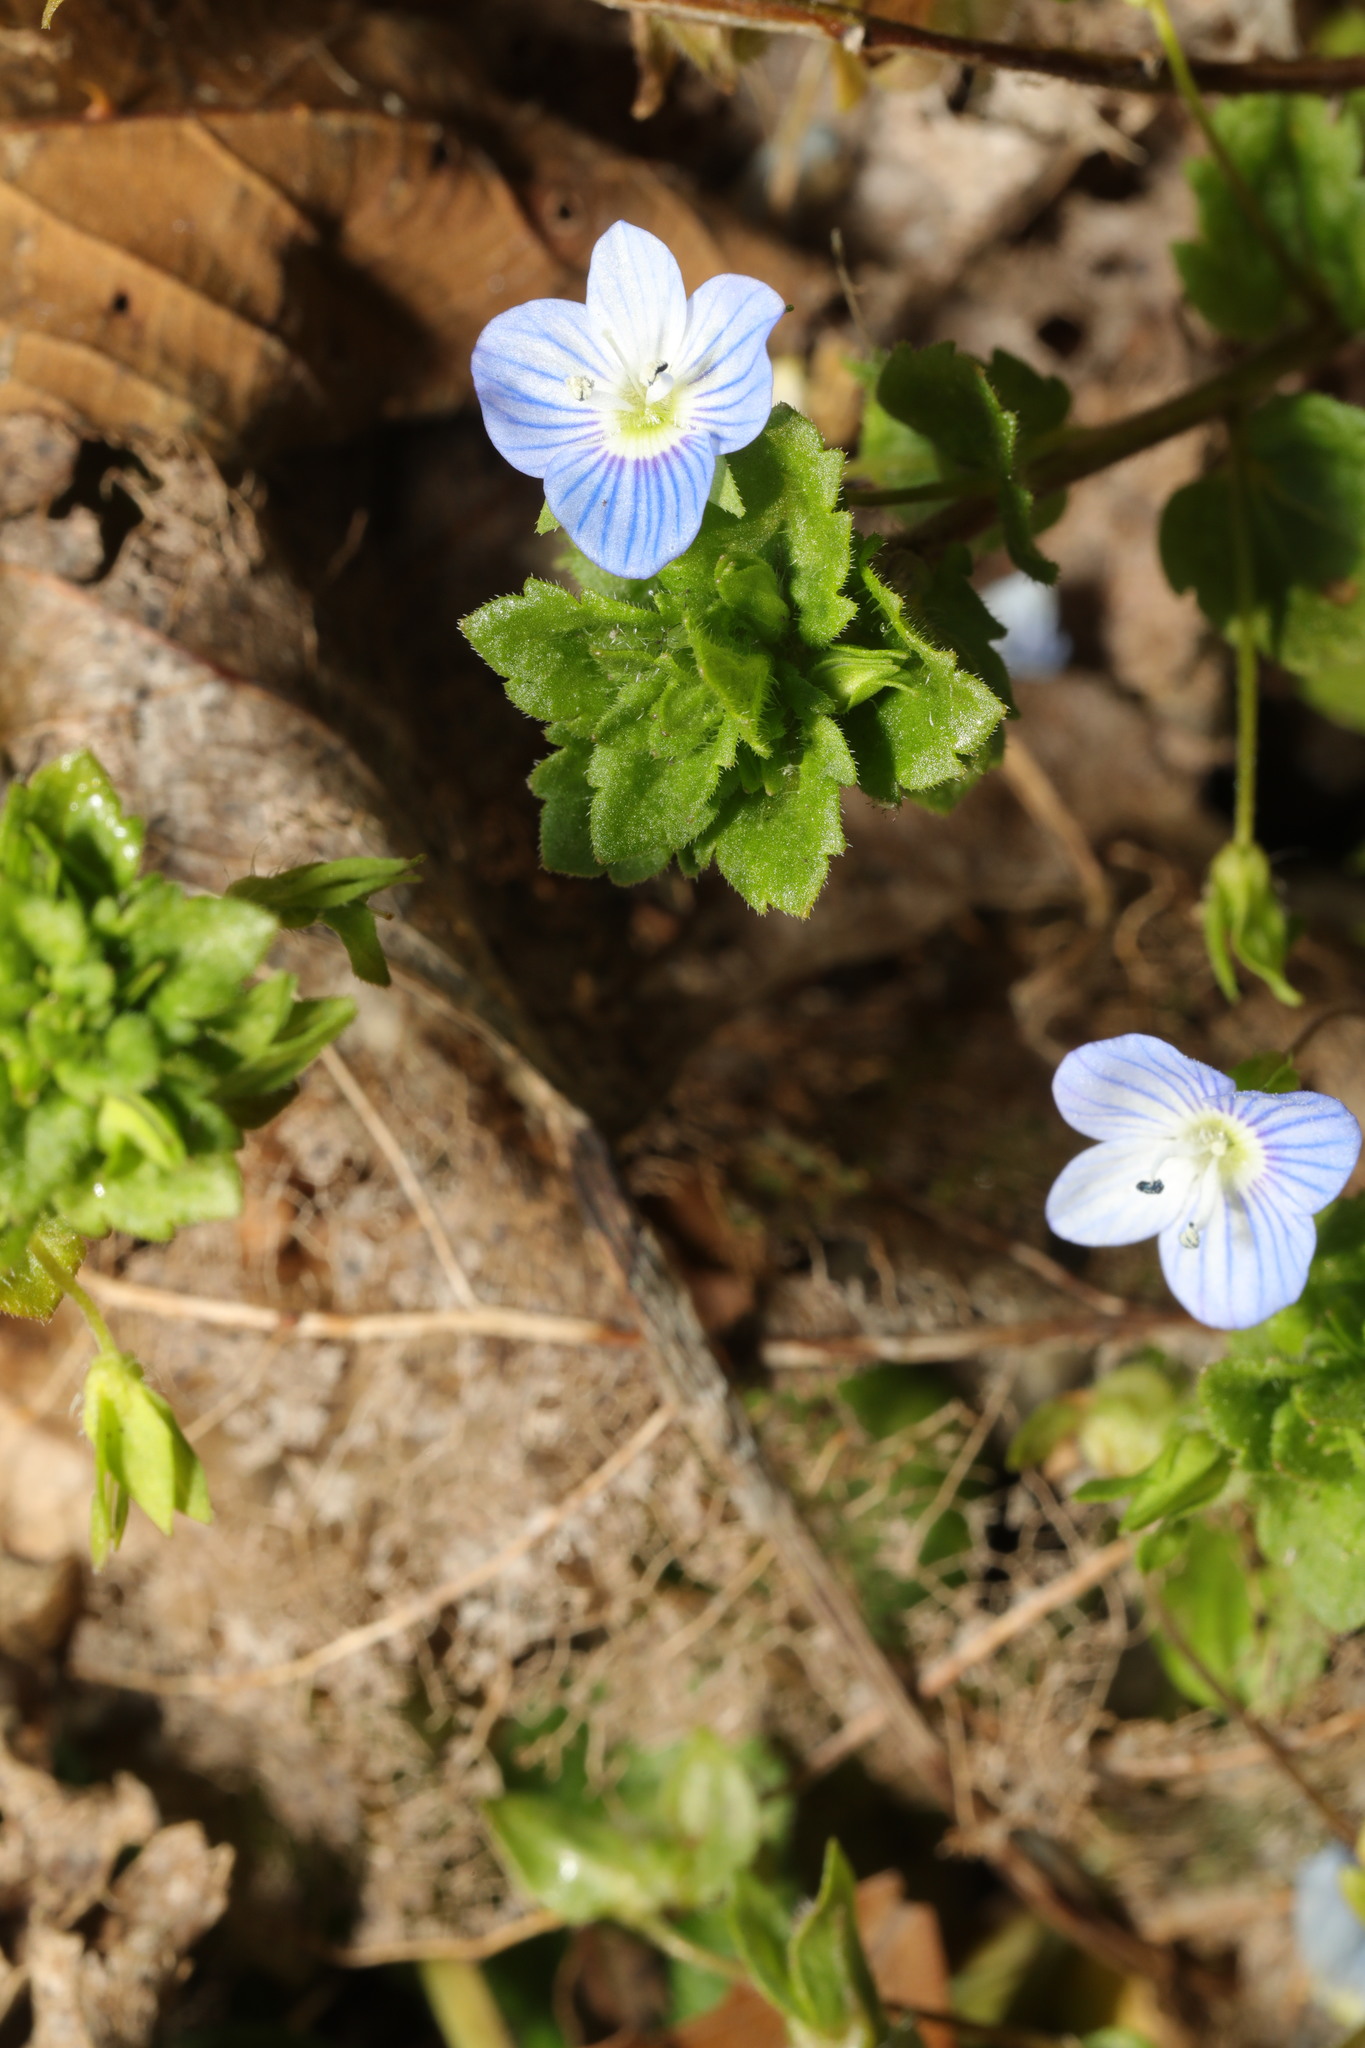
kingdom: Plantae
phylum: Tracheophyta
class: Magnoliopsida
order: Lamiales
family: Plantaginaceae
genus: Veronica
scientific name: Veronica persica
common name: Common field-speedwell
